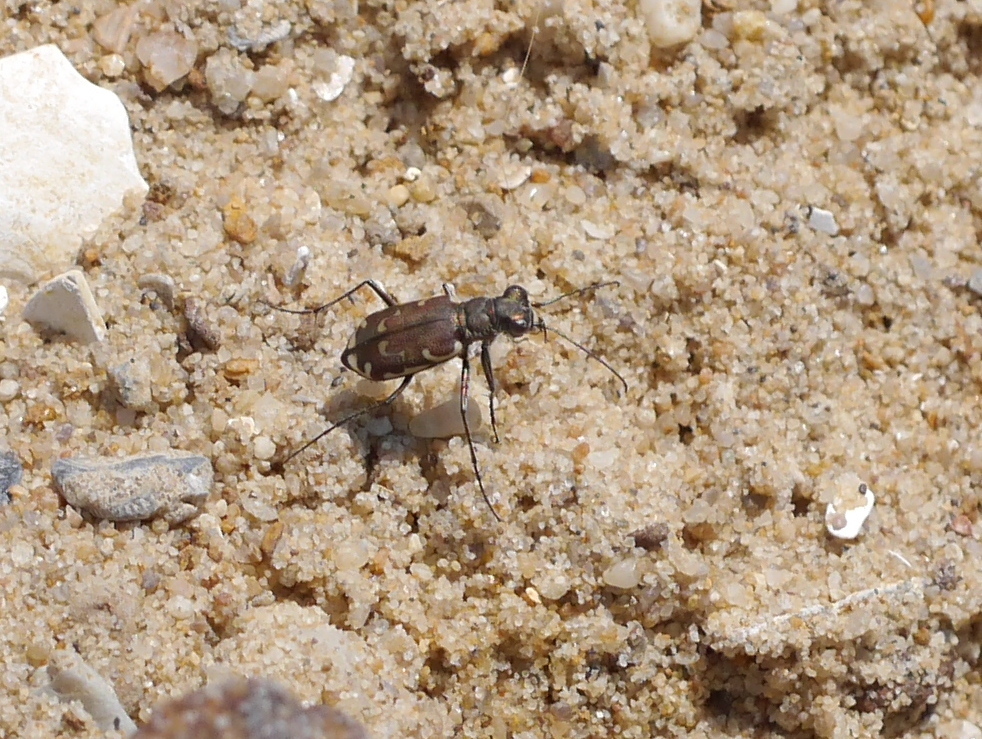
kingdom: Animalia
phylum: Arthropoda
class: Insecta
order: Coleoptera
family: Carabidae
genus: Cicindela
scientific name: Cicindela repanda
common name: Bronzed tiger beetle
